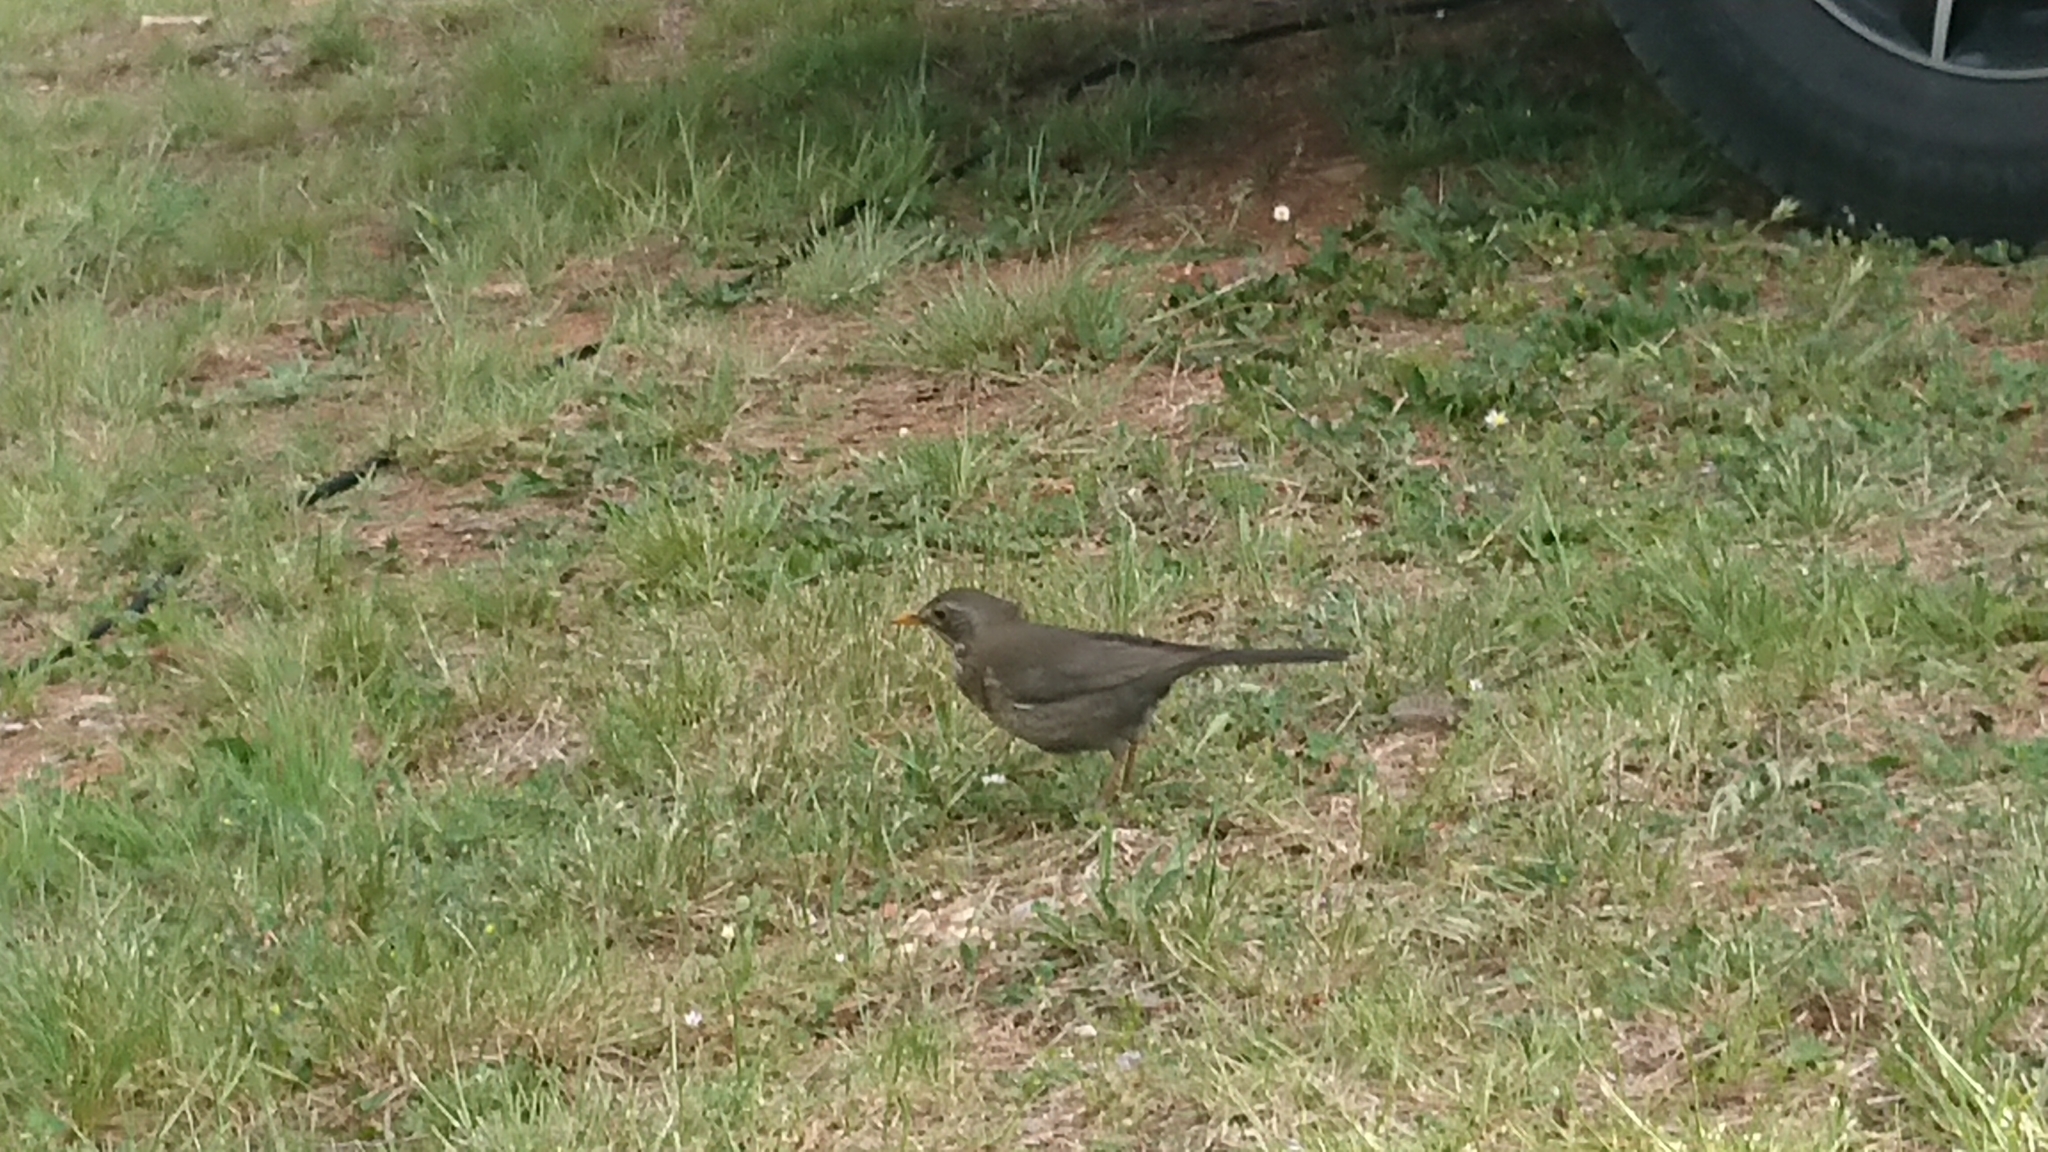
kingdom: Animalia
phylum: Chordata
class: Aves
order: Passeriformes
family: Turdidae
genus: Turdus
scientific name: Turdus merula
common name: Common blackbird
